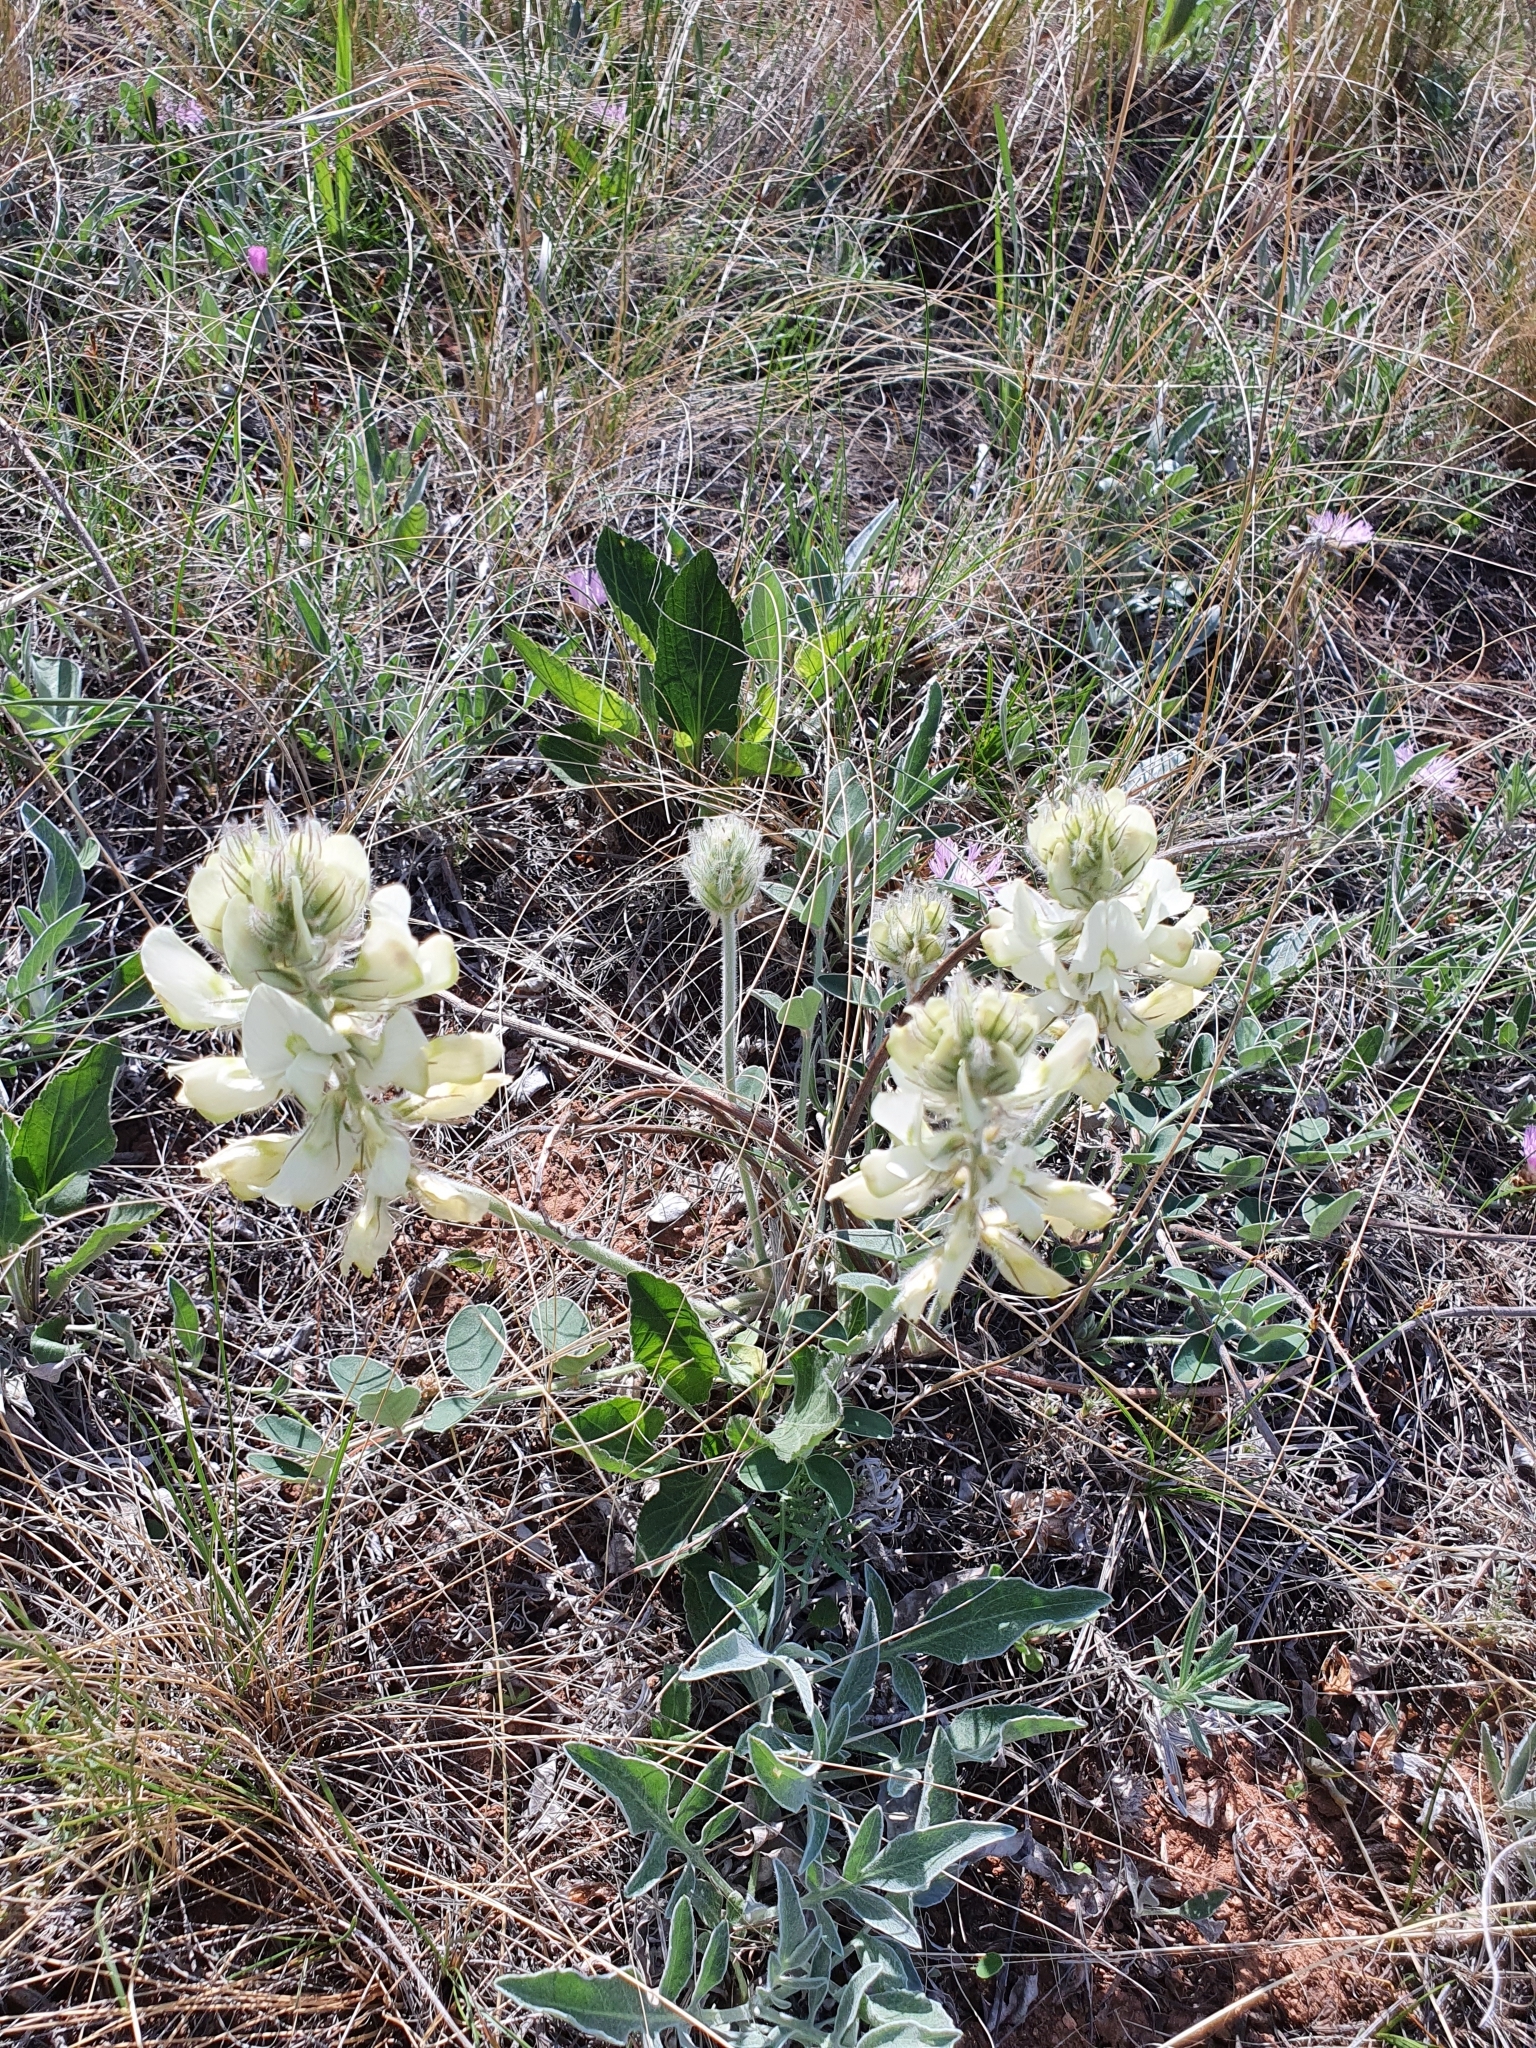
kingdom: Plantae
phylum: Tracheophyta
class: Magnoliopsida
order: Fabales
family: Fabaceae
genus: Hedysarum
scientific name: Hedysarum grandiflorum
